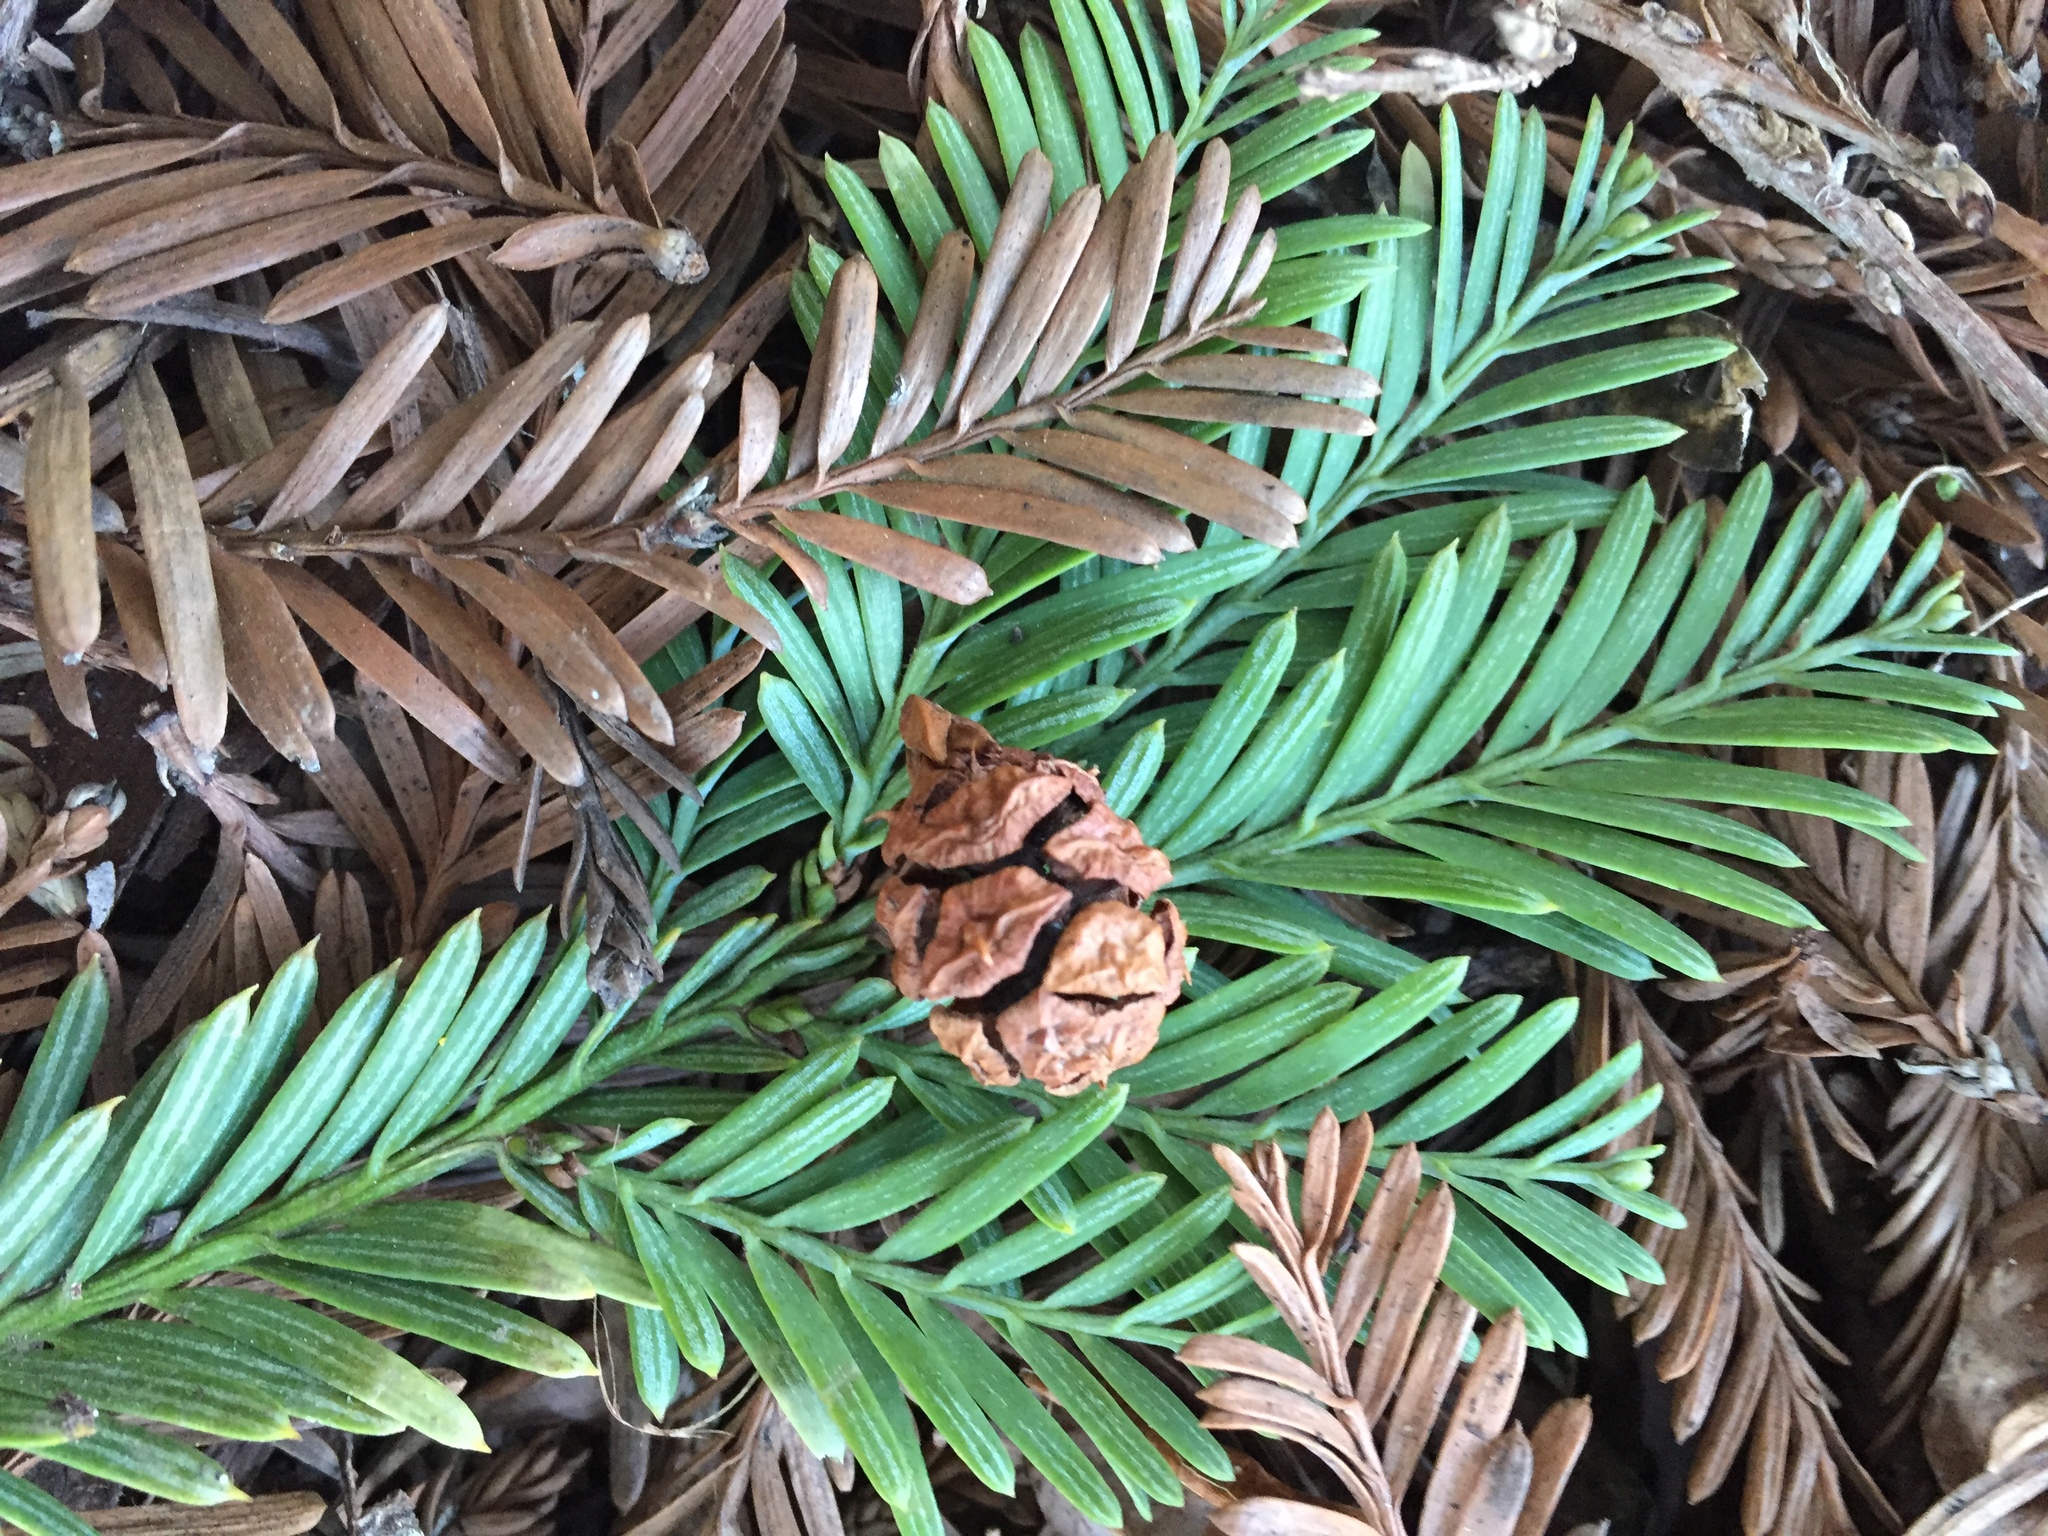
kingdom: Plantae
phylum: Tracheophyta
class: Pinopsida
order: Pinales
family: Cupressaceae
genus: Sequoia
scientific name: Sequoia sempervirens
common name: Coast redwood
